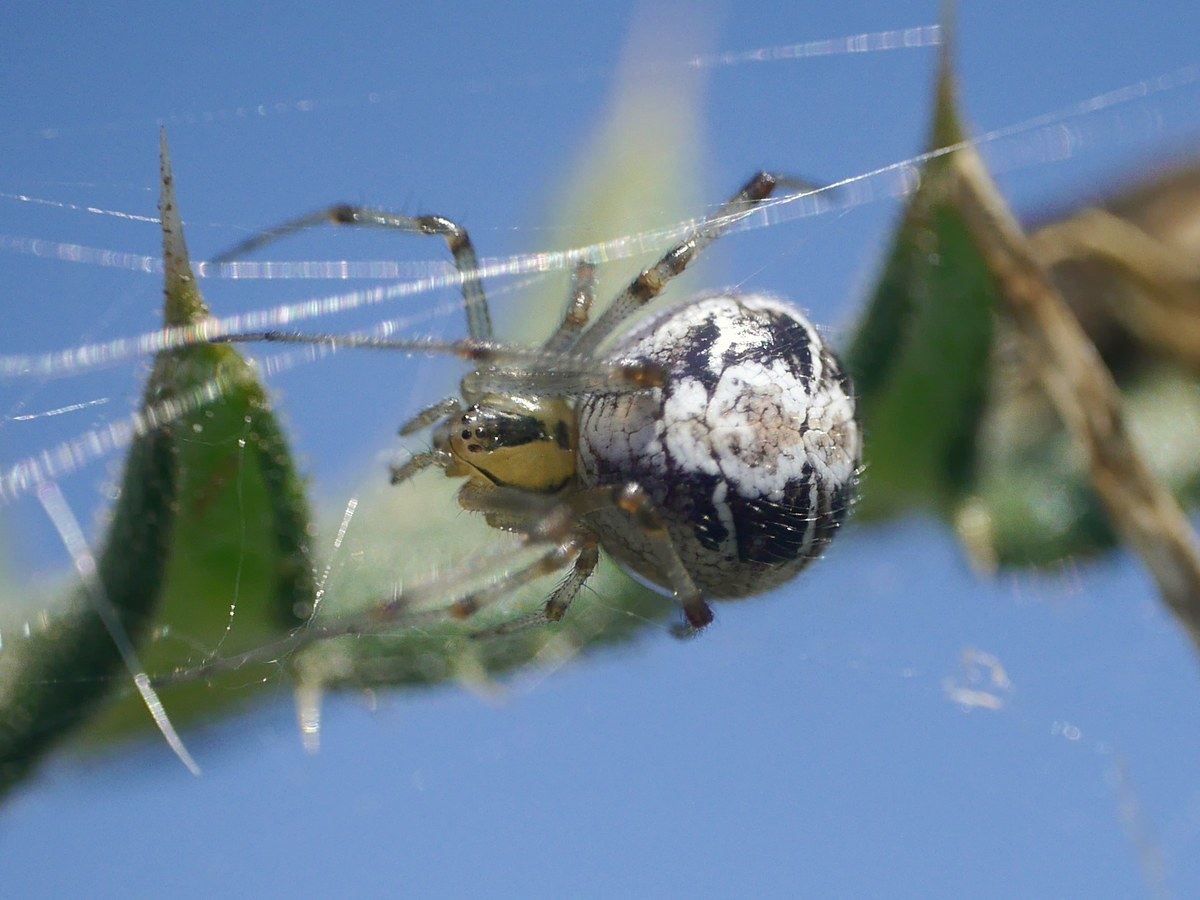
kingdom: Animalia
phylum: Arthropoda
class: Arachnida
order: Araneae
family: Theridiidae
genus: Phylloneta
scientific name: Phylloneta impressa
